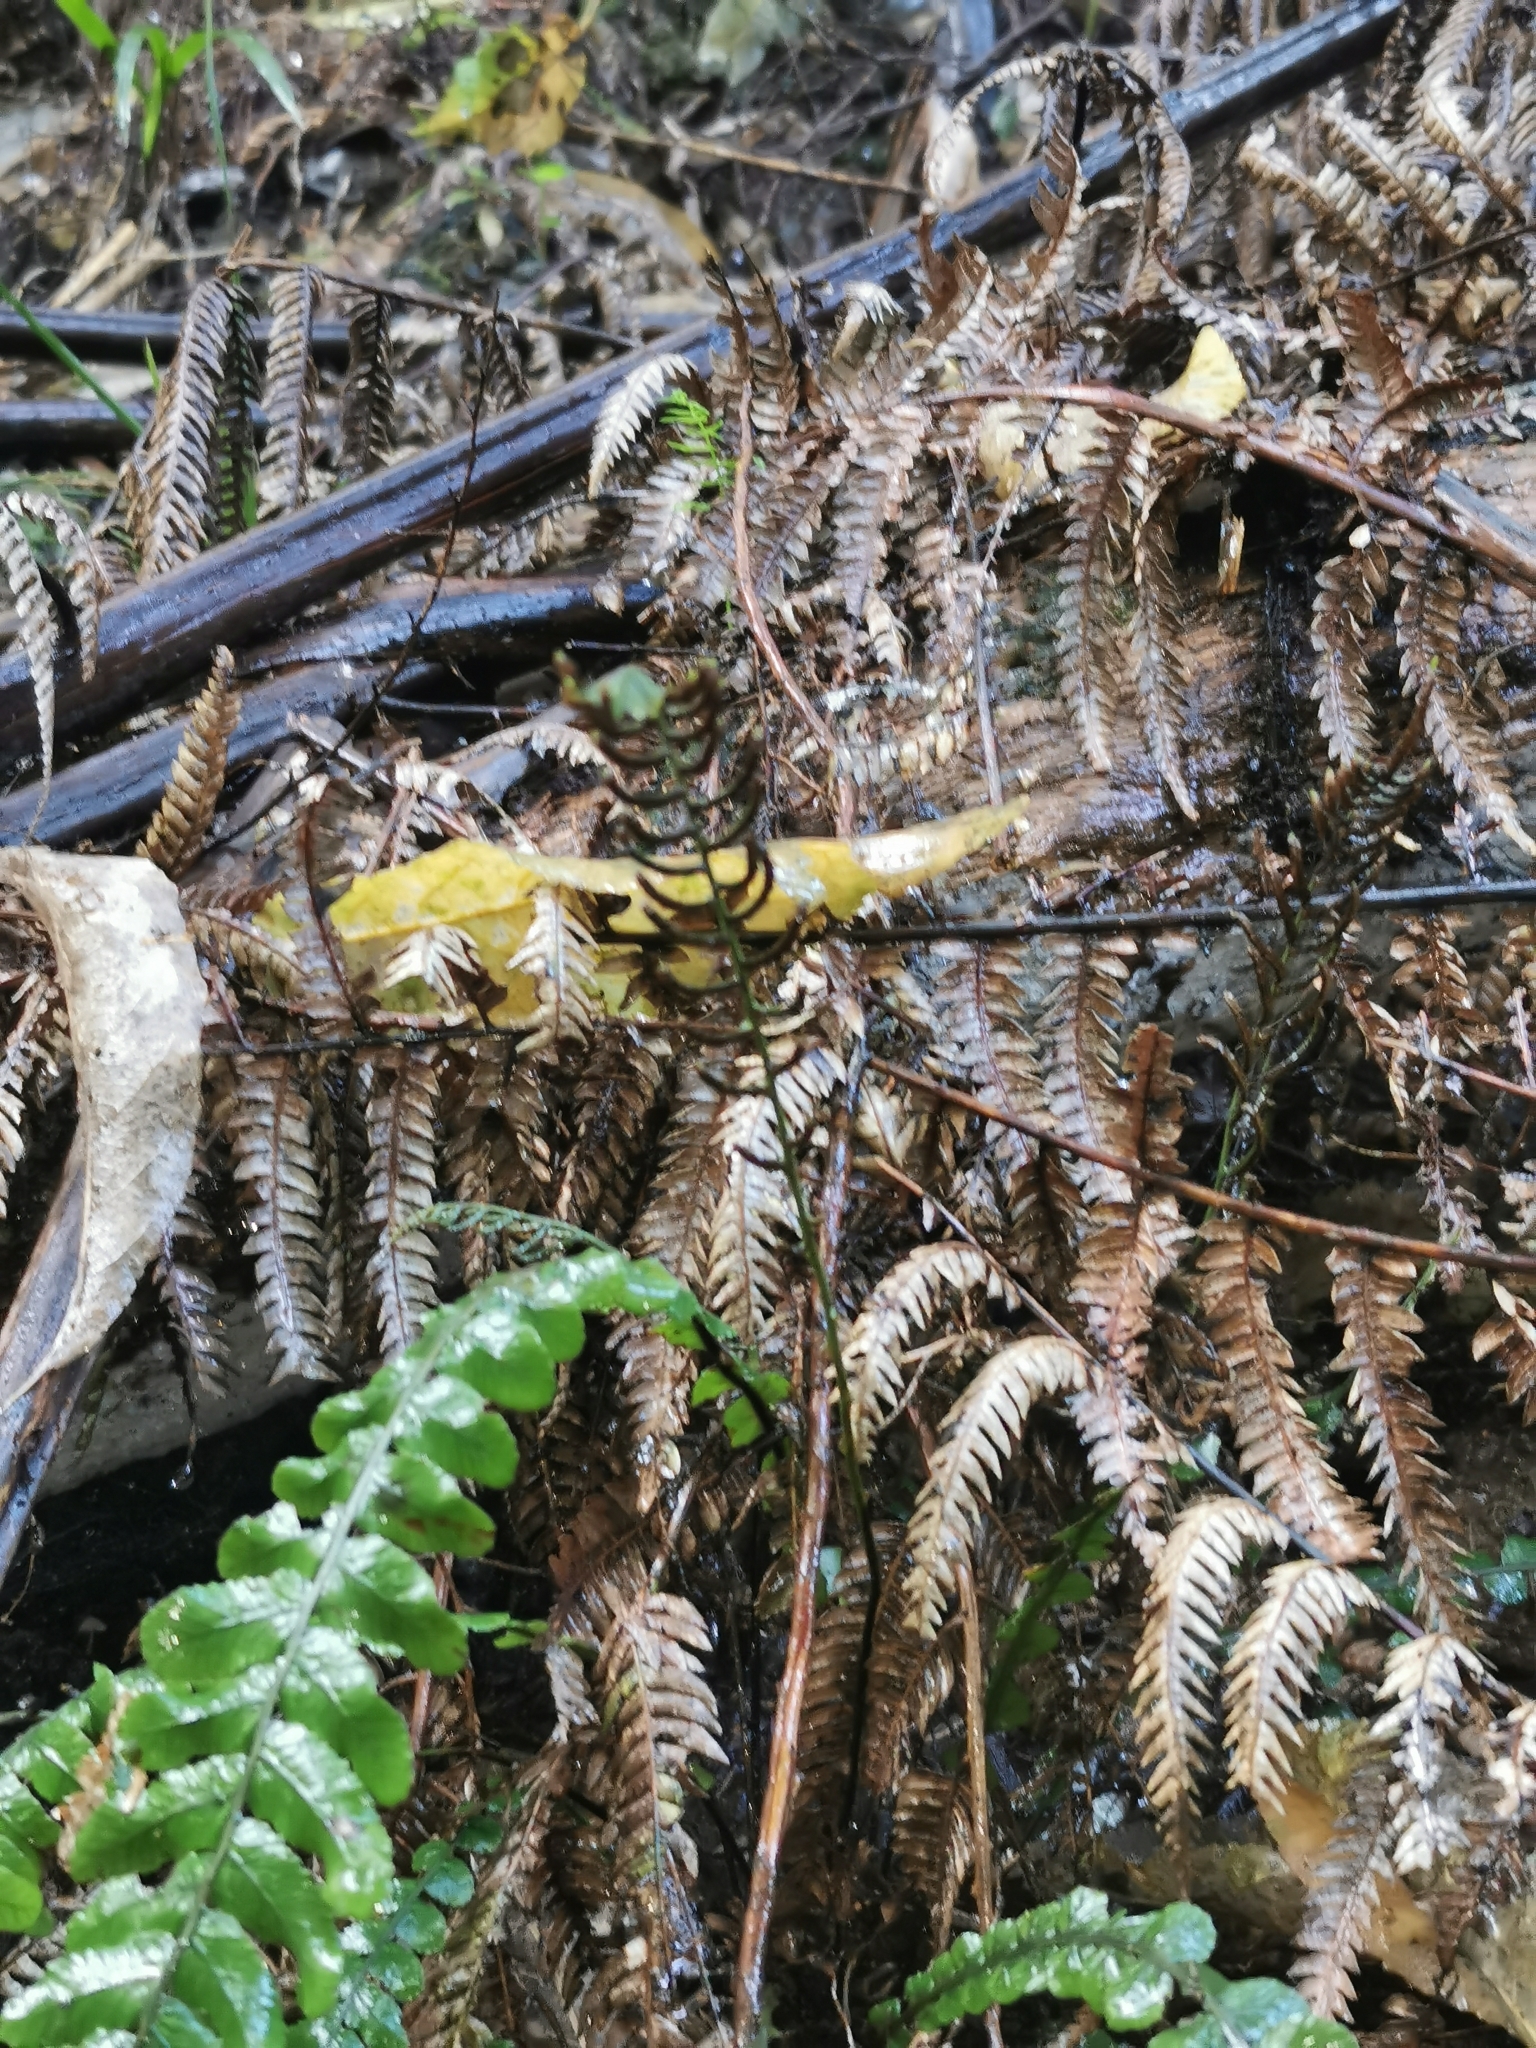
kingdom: Plantae
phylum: Tracheophyta
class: Polypodiopsida
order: Polypodiales
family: Blechnaceae
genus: Austroblechnum
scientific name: Austroblechnum lanceolatum
